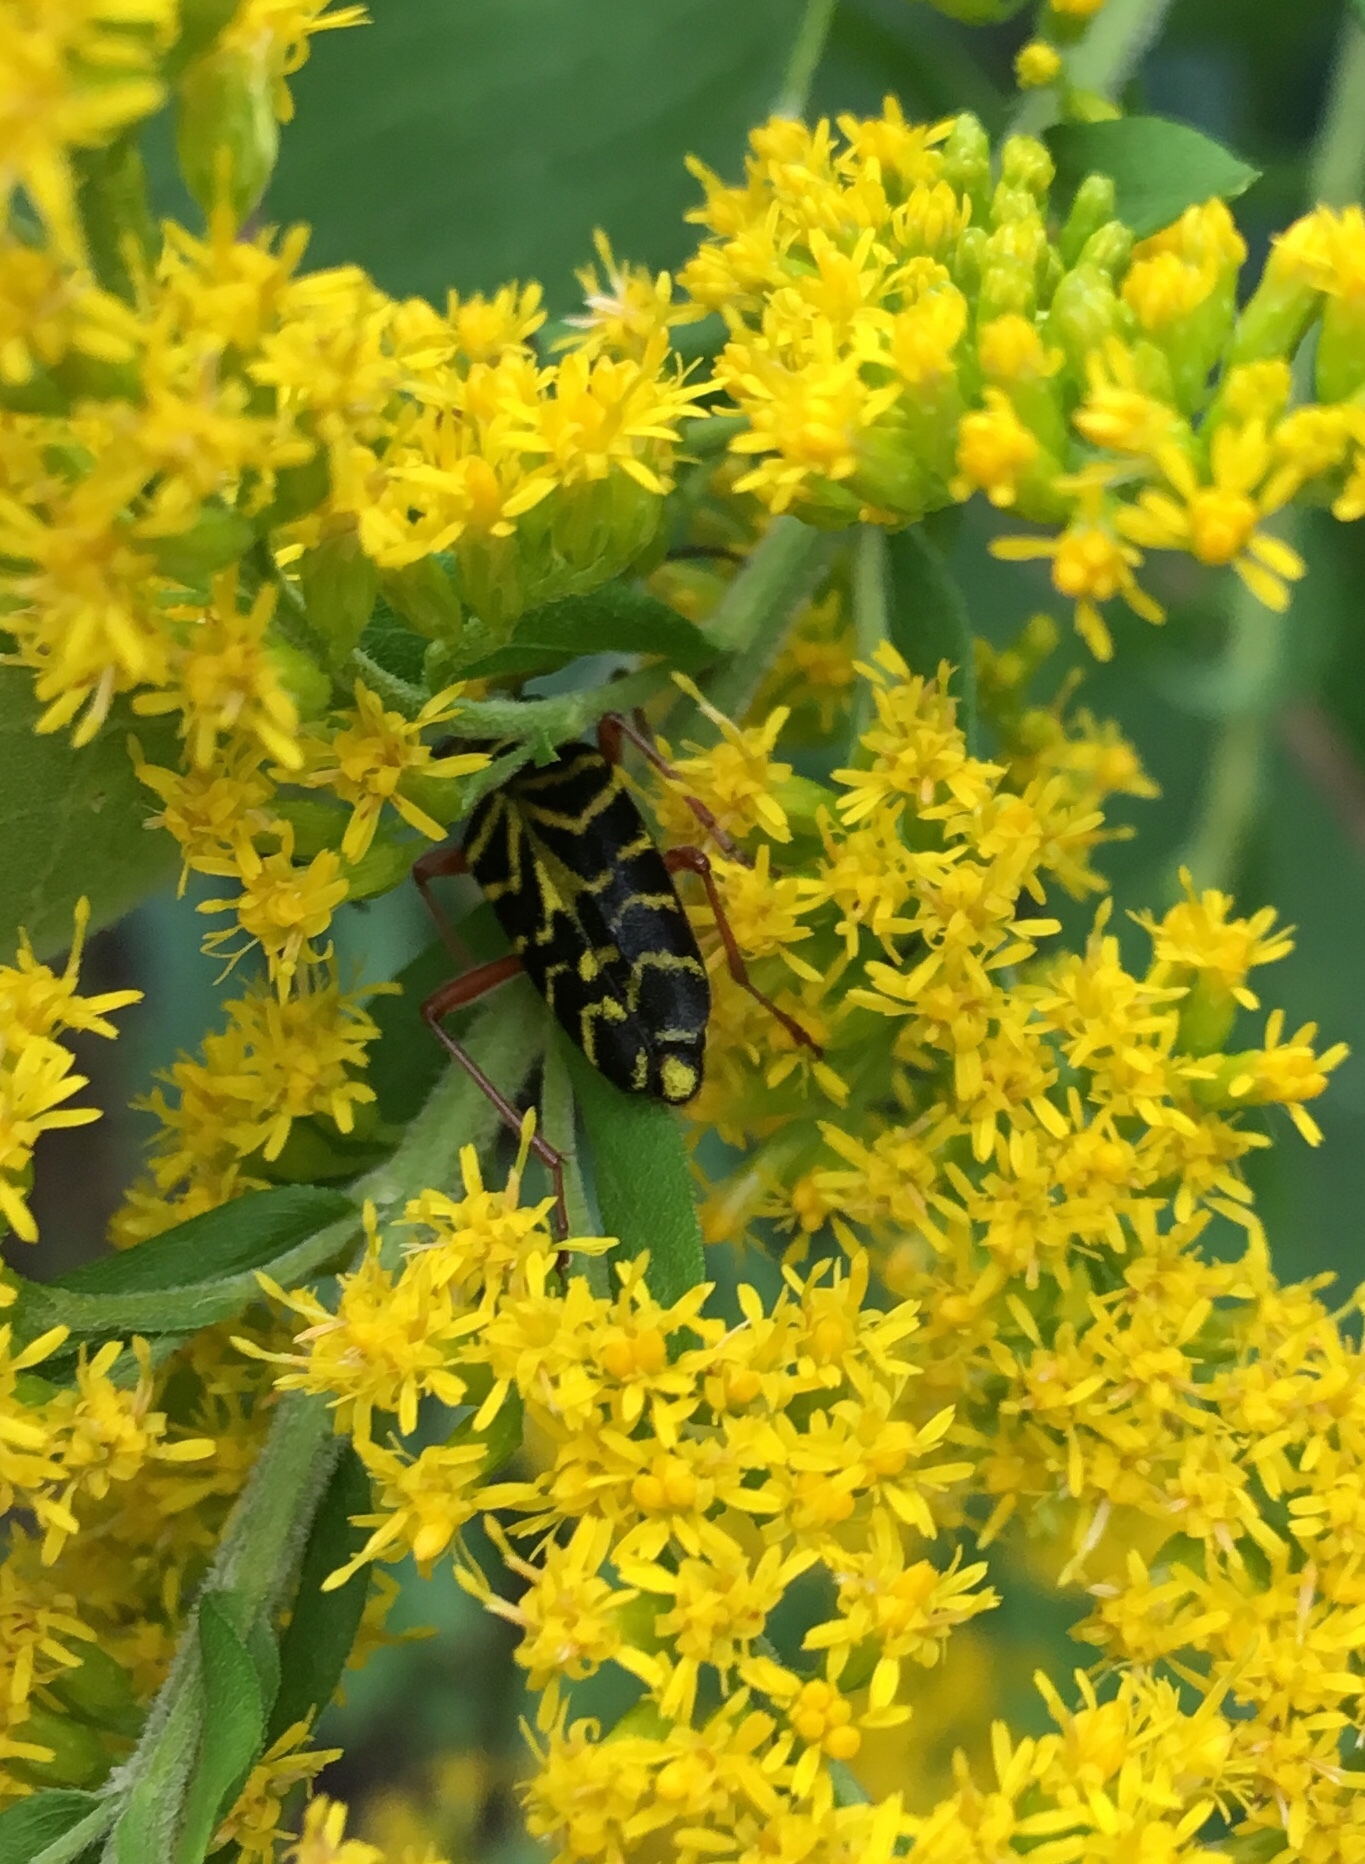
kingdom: Animalia
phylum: Arthropoda
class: Insecta
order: Coleoptera
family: Cerambycidae
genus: Megacyllene
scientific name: Megacyllene robiniae
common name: Locust borer
